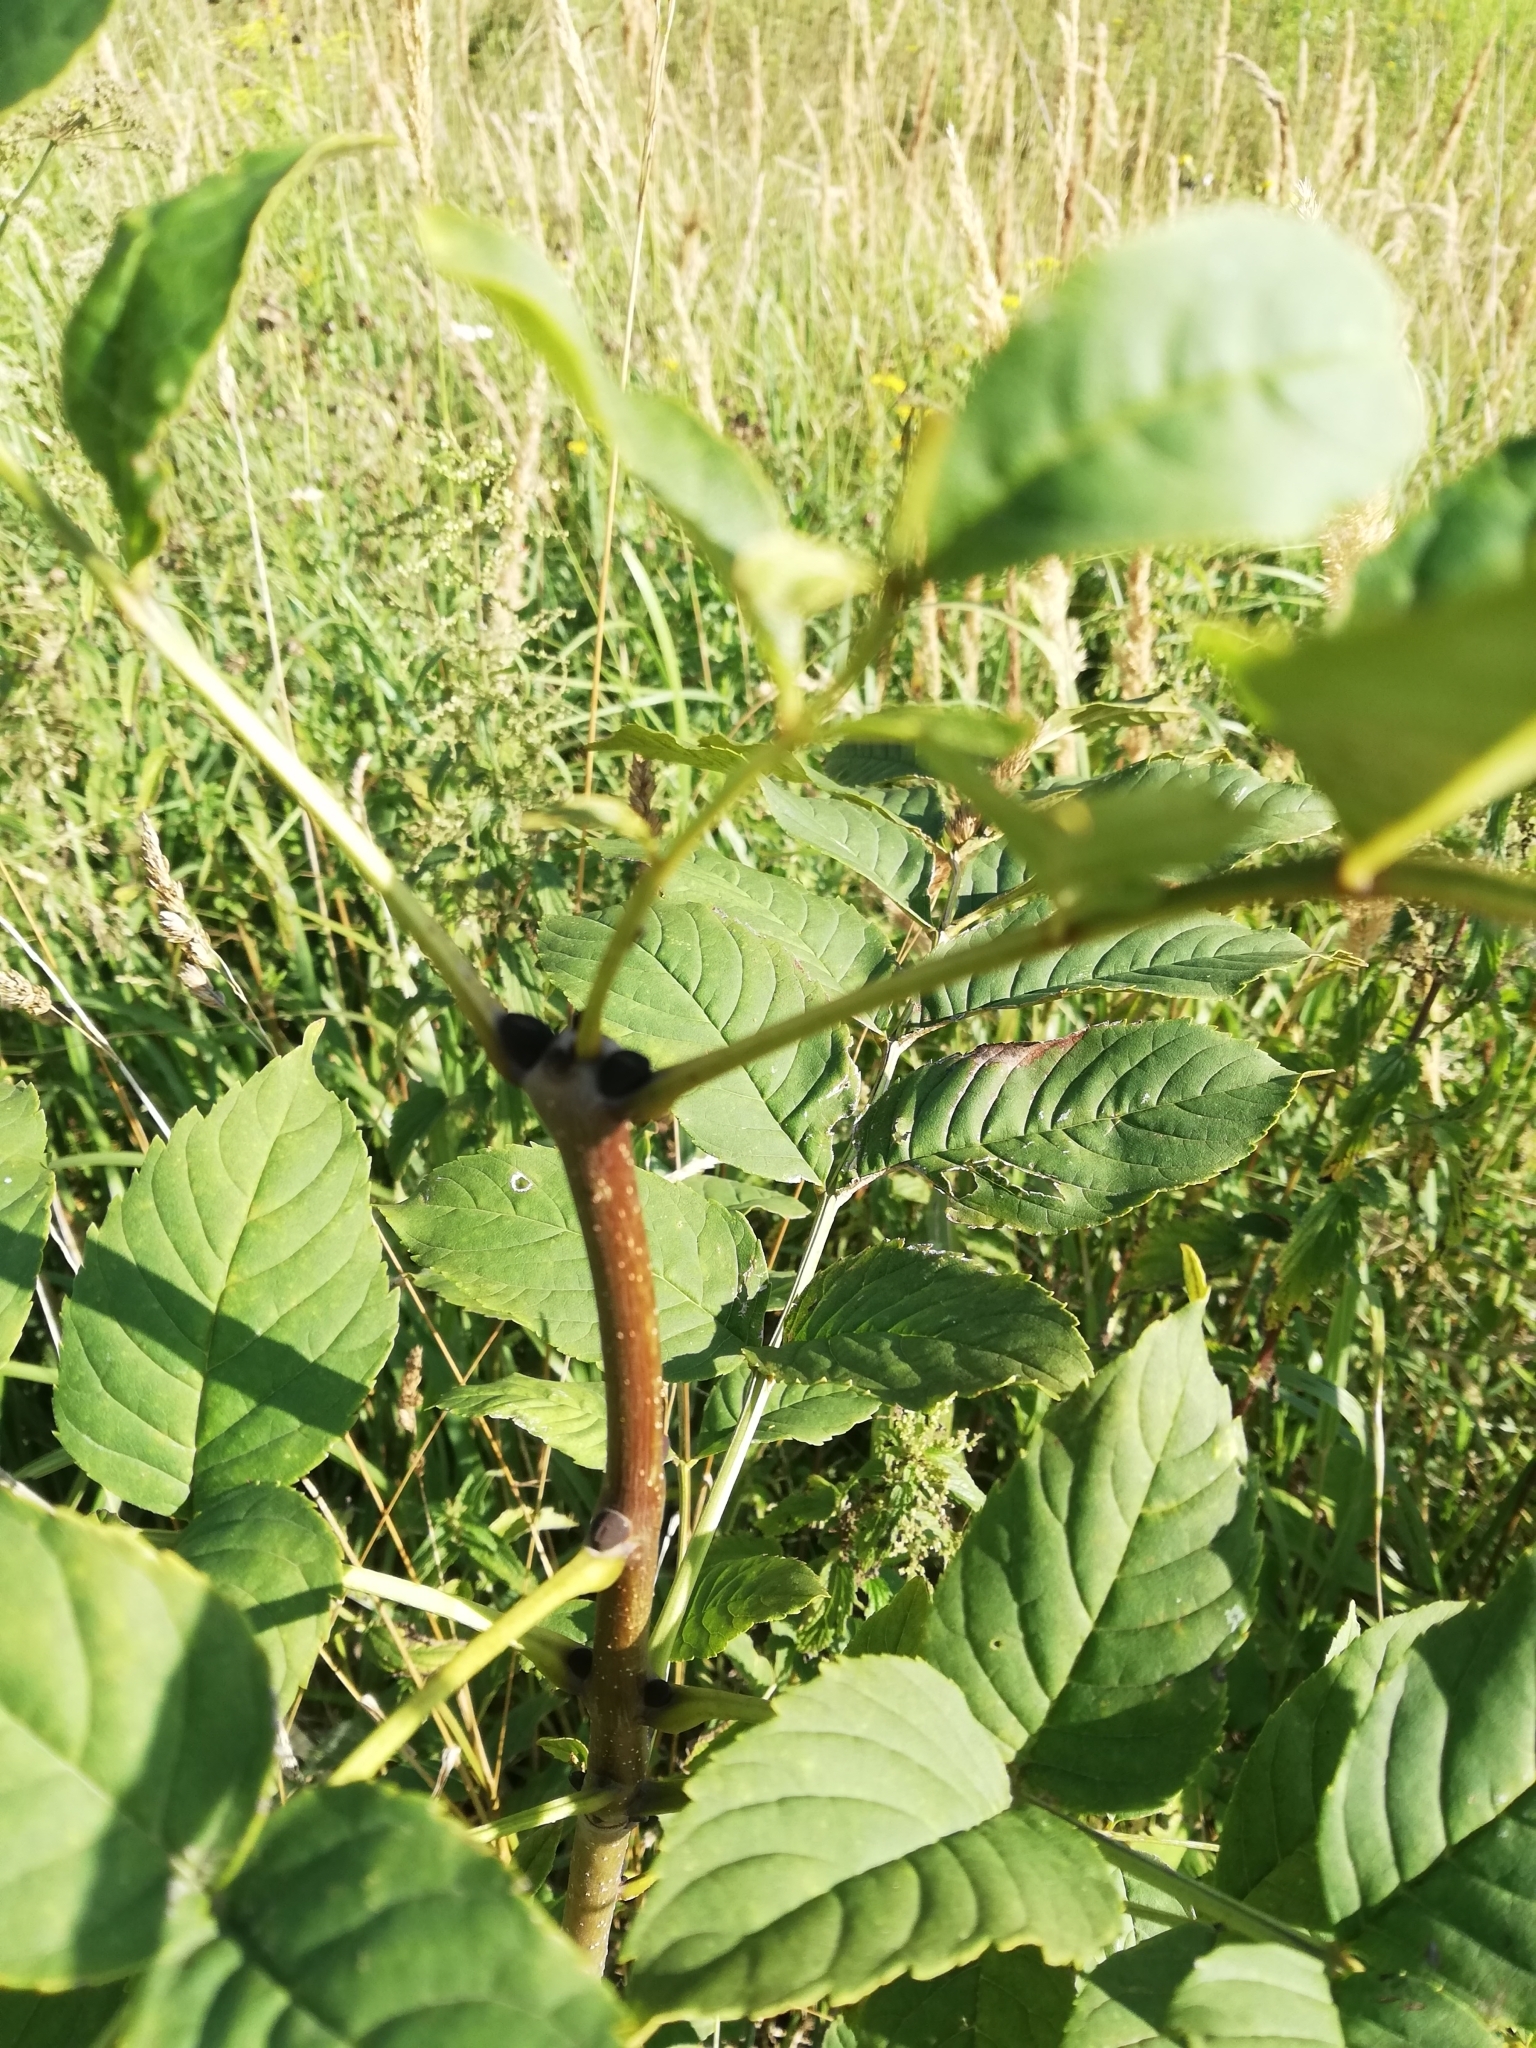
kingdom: Plantae
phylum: Tracheophyta
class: Magnoliopsida
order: Lamiales
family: Oleaceae
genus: Fraxinus
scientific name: Fraxinus excelsior
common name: European ash
